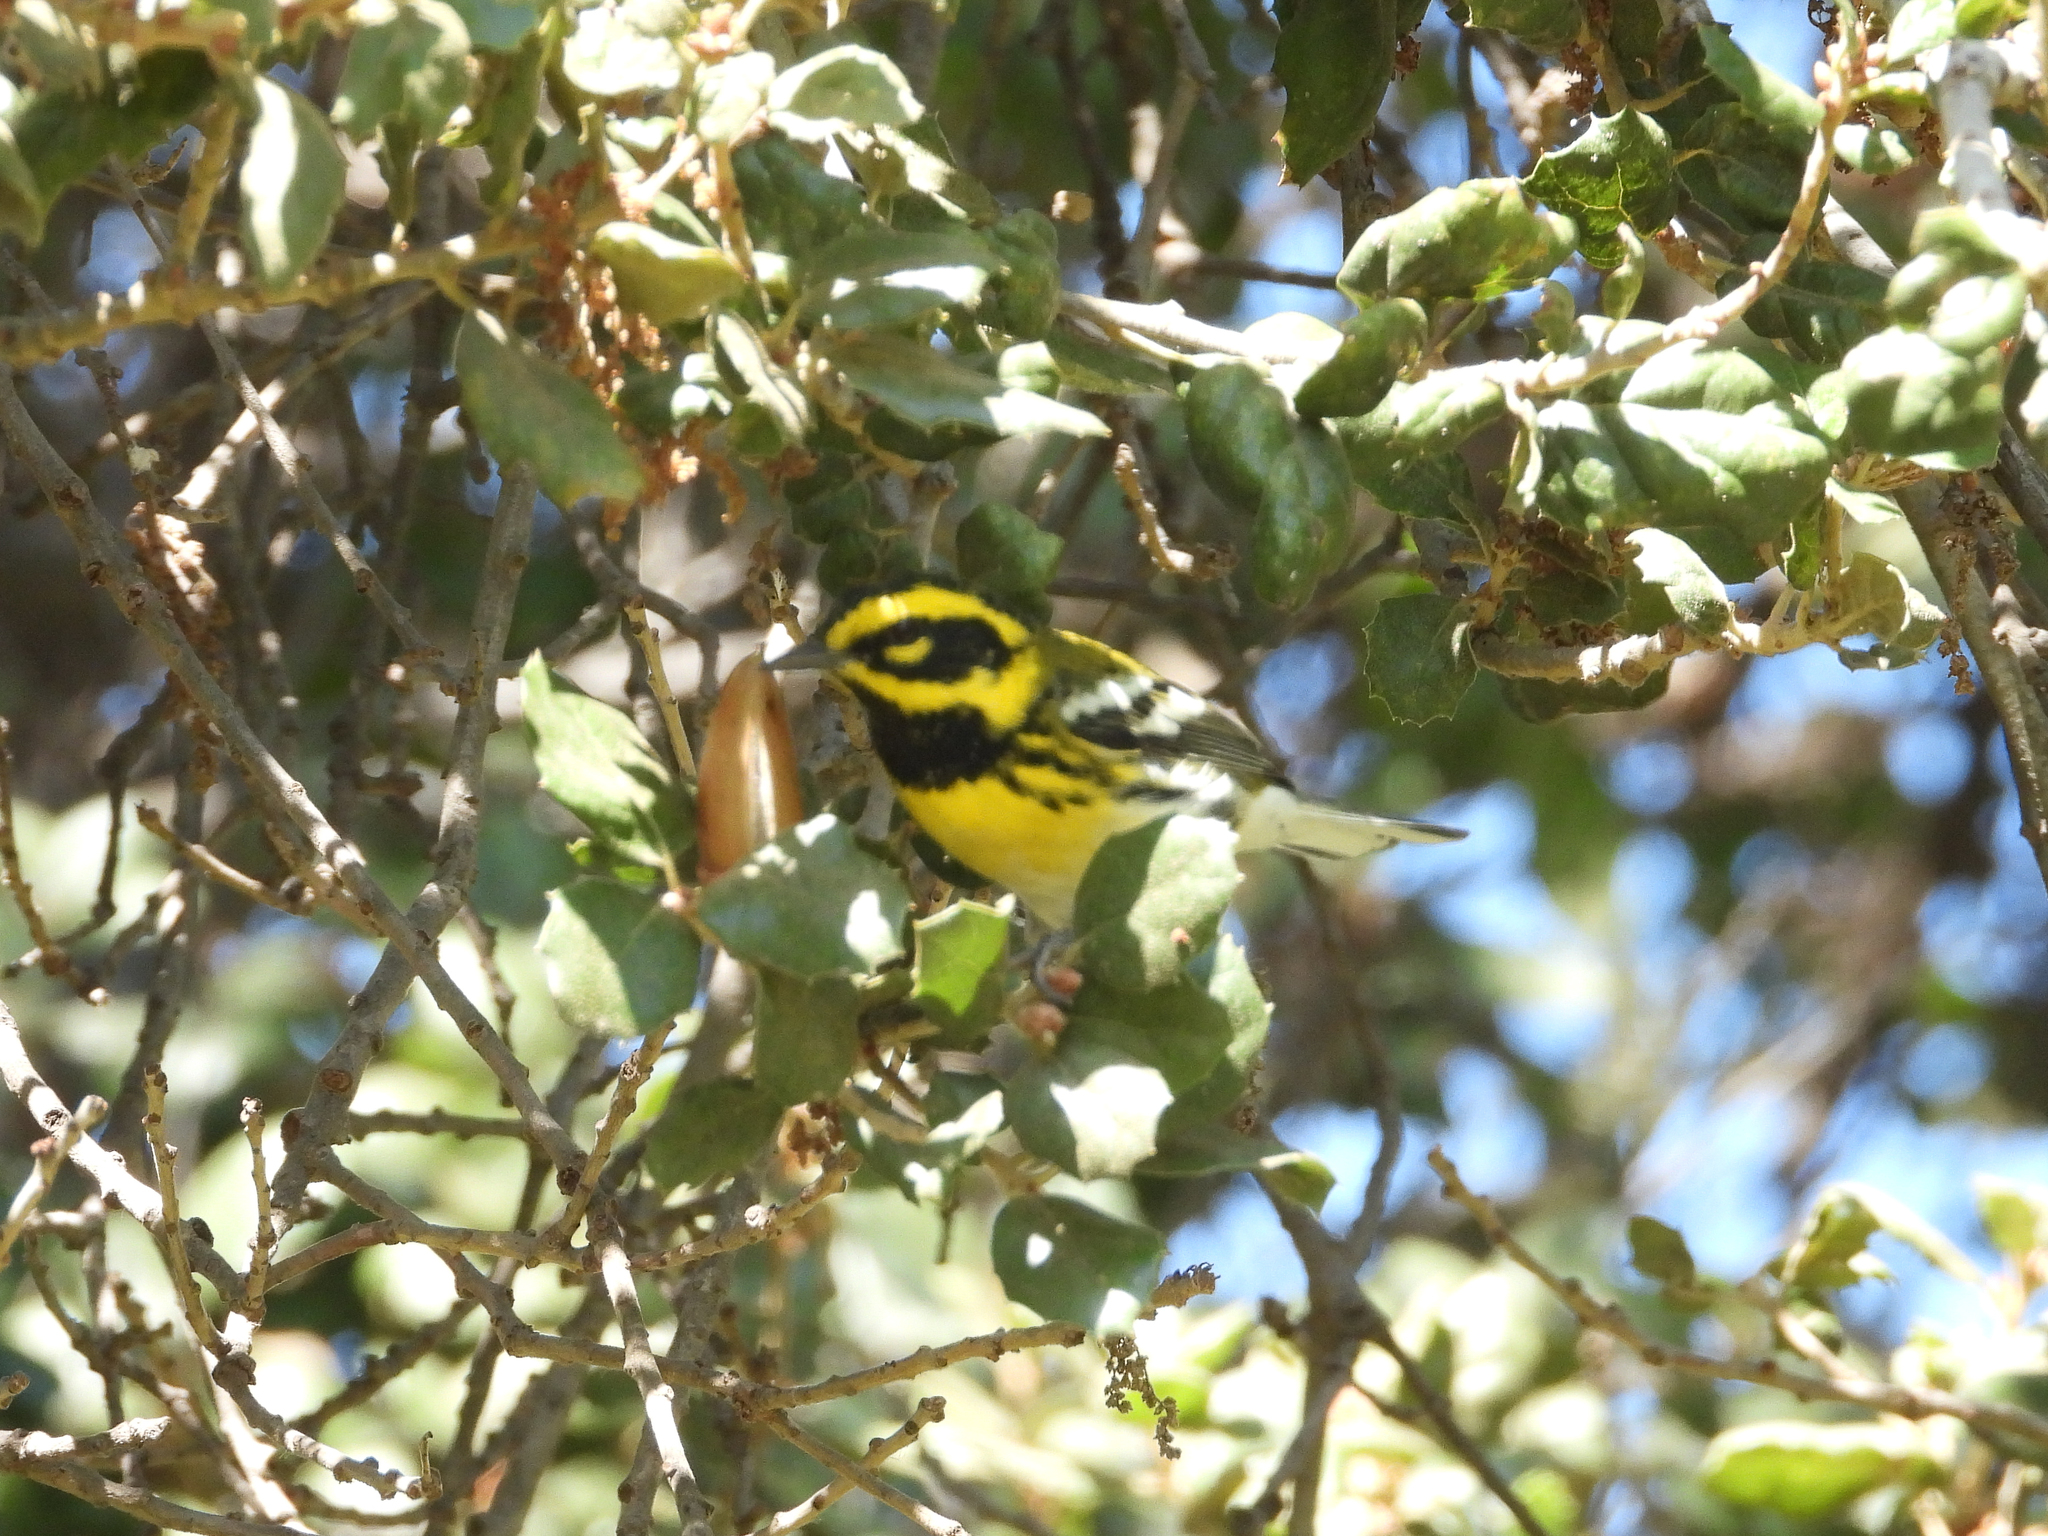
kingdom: Animalia
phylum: Chordata
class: Aves
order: Passeriformes
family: Parulidae
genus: Setophaga
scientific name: Setophaga townsendi
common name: Townsend's warbler
